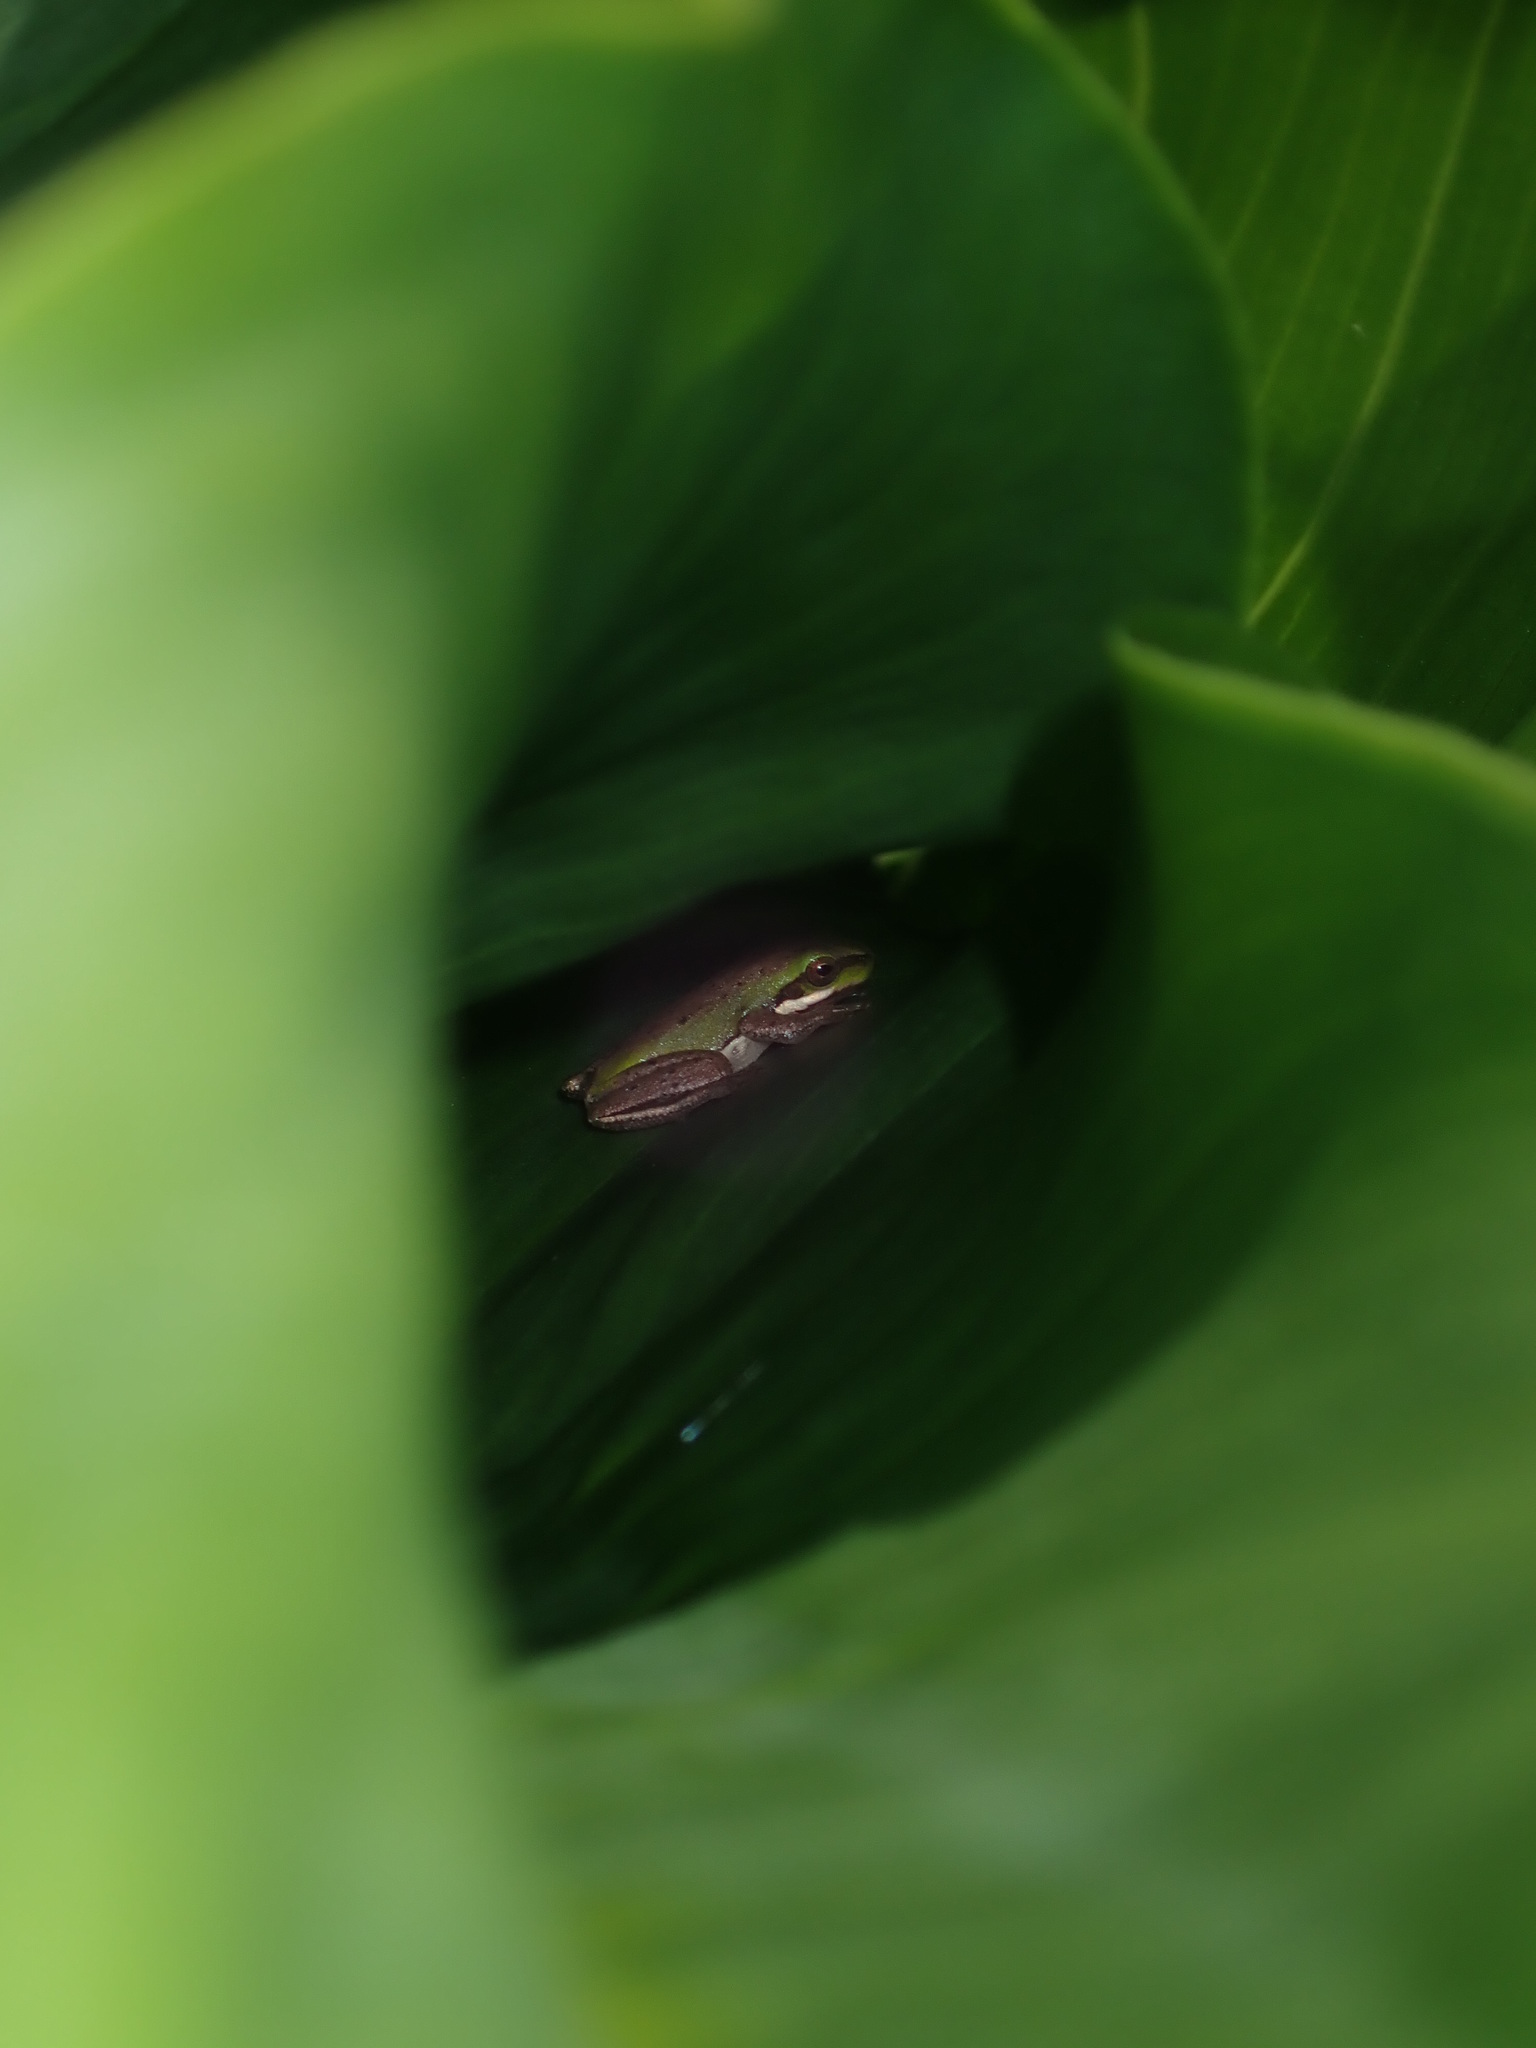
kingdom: Animalia
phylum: Chordata
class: Amphibia
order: Anura
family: Pelodryadidae
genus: Litoria
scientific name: Litoria fallax
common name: Eastern dwarf treefrog
